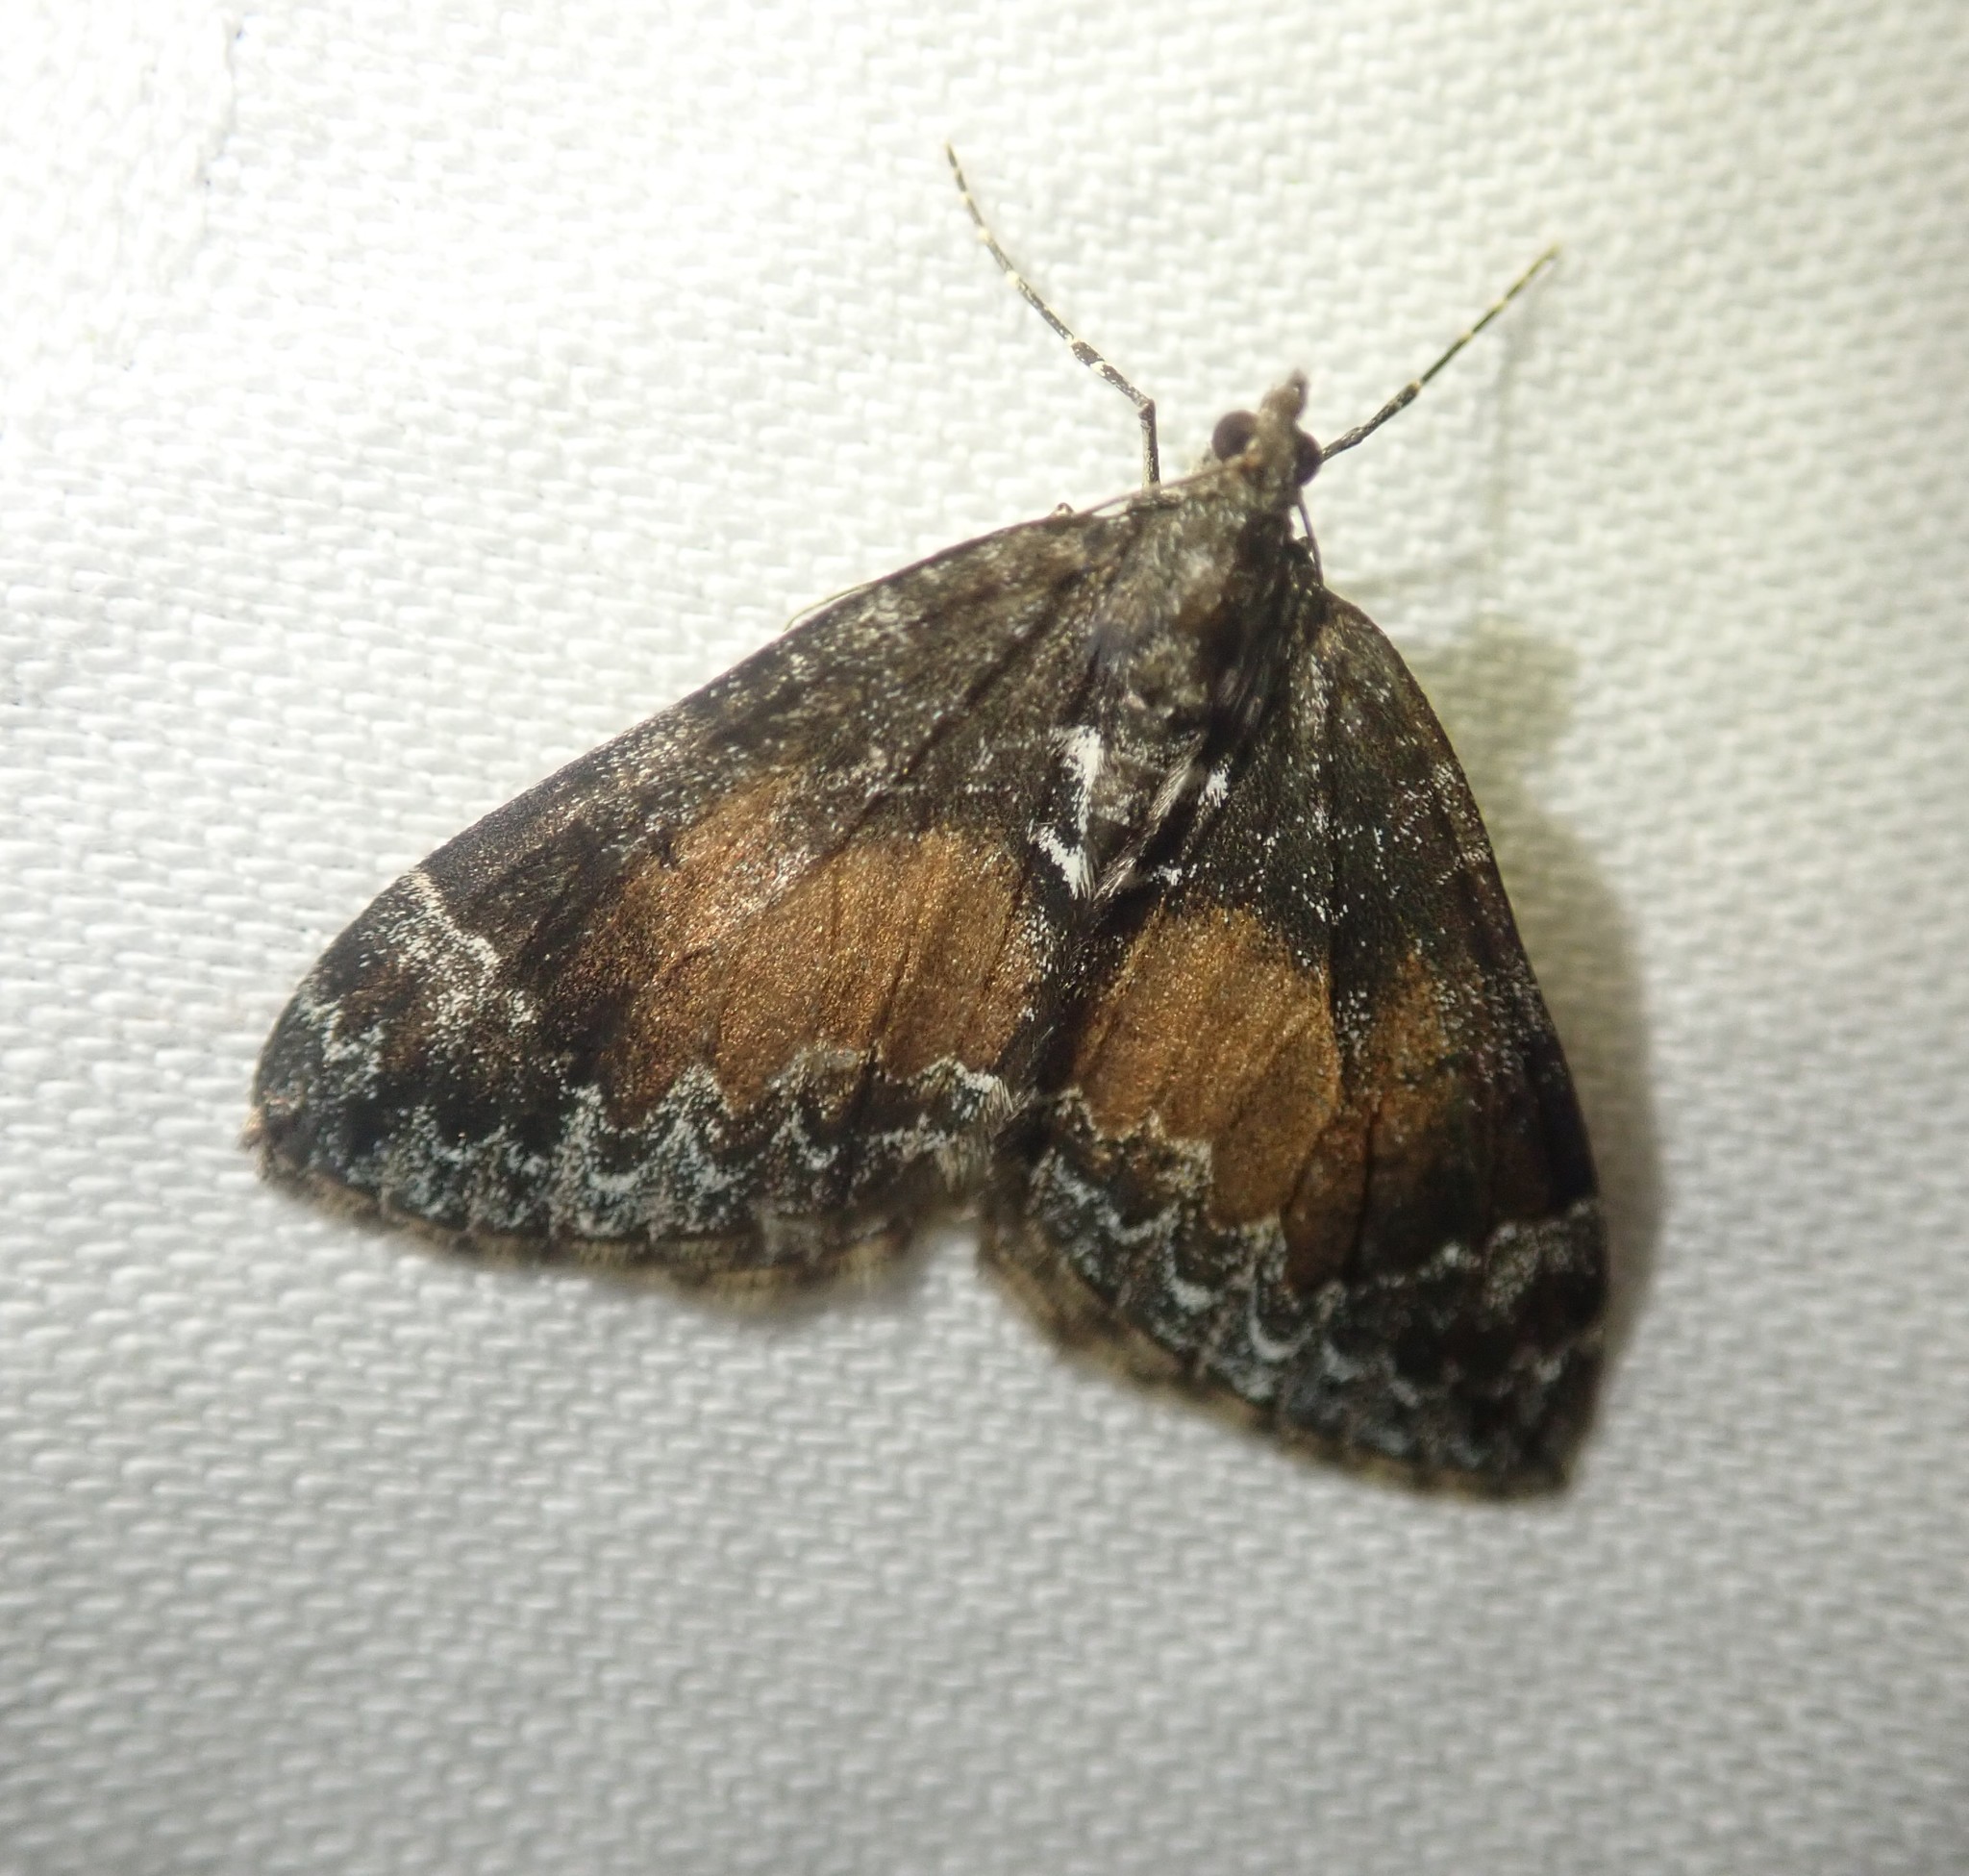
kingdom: Animalia
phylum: Arthropoda
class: Insecta
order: Lepidoptera
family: Geometridae
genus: Dysstroma
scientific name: Dysstroma truncata
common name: Common marbled carpet
